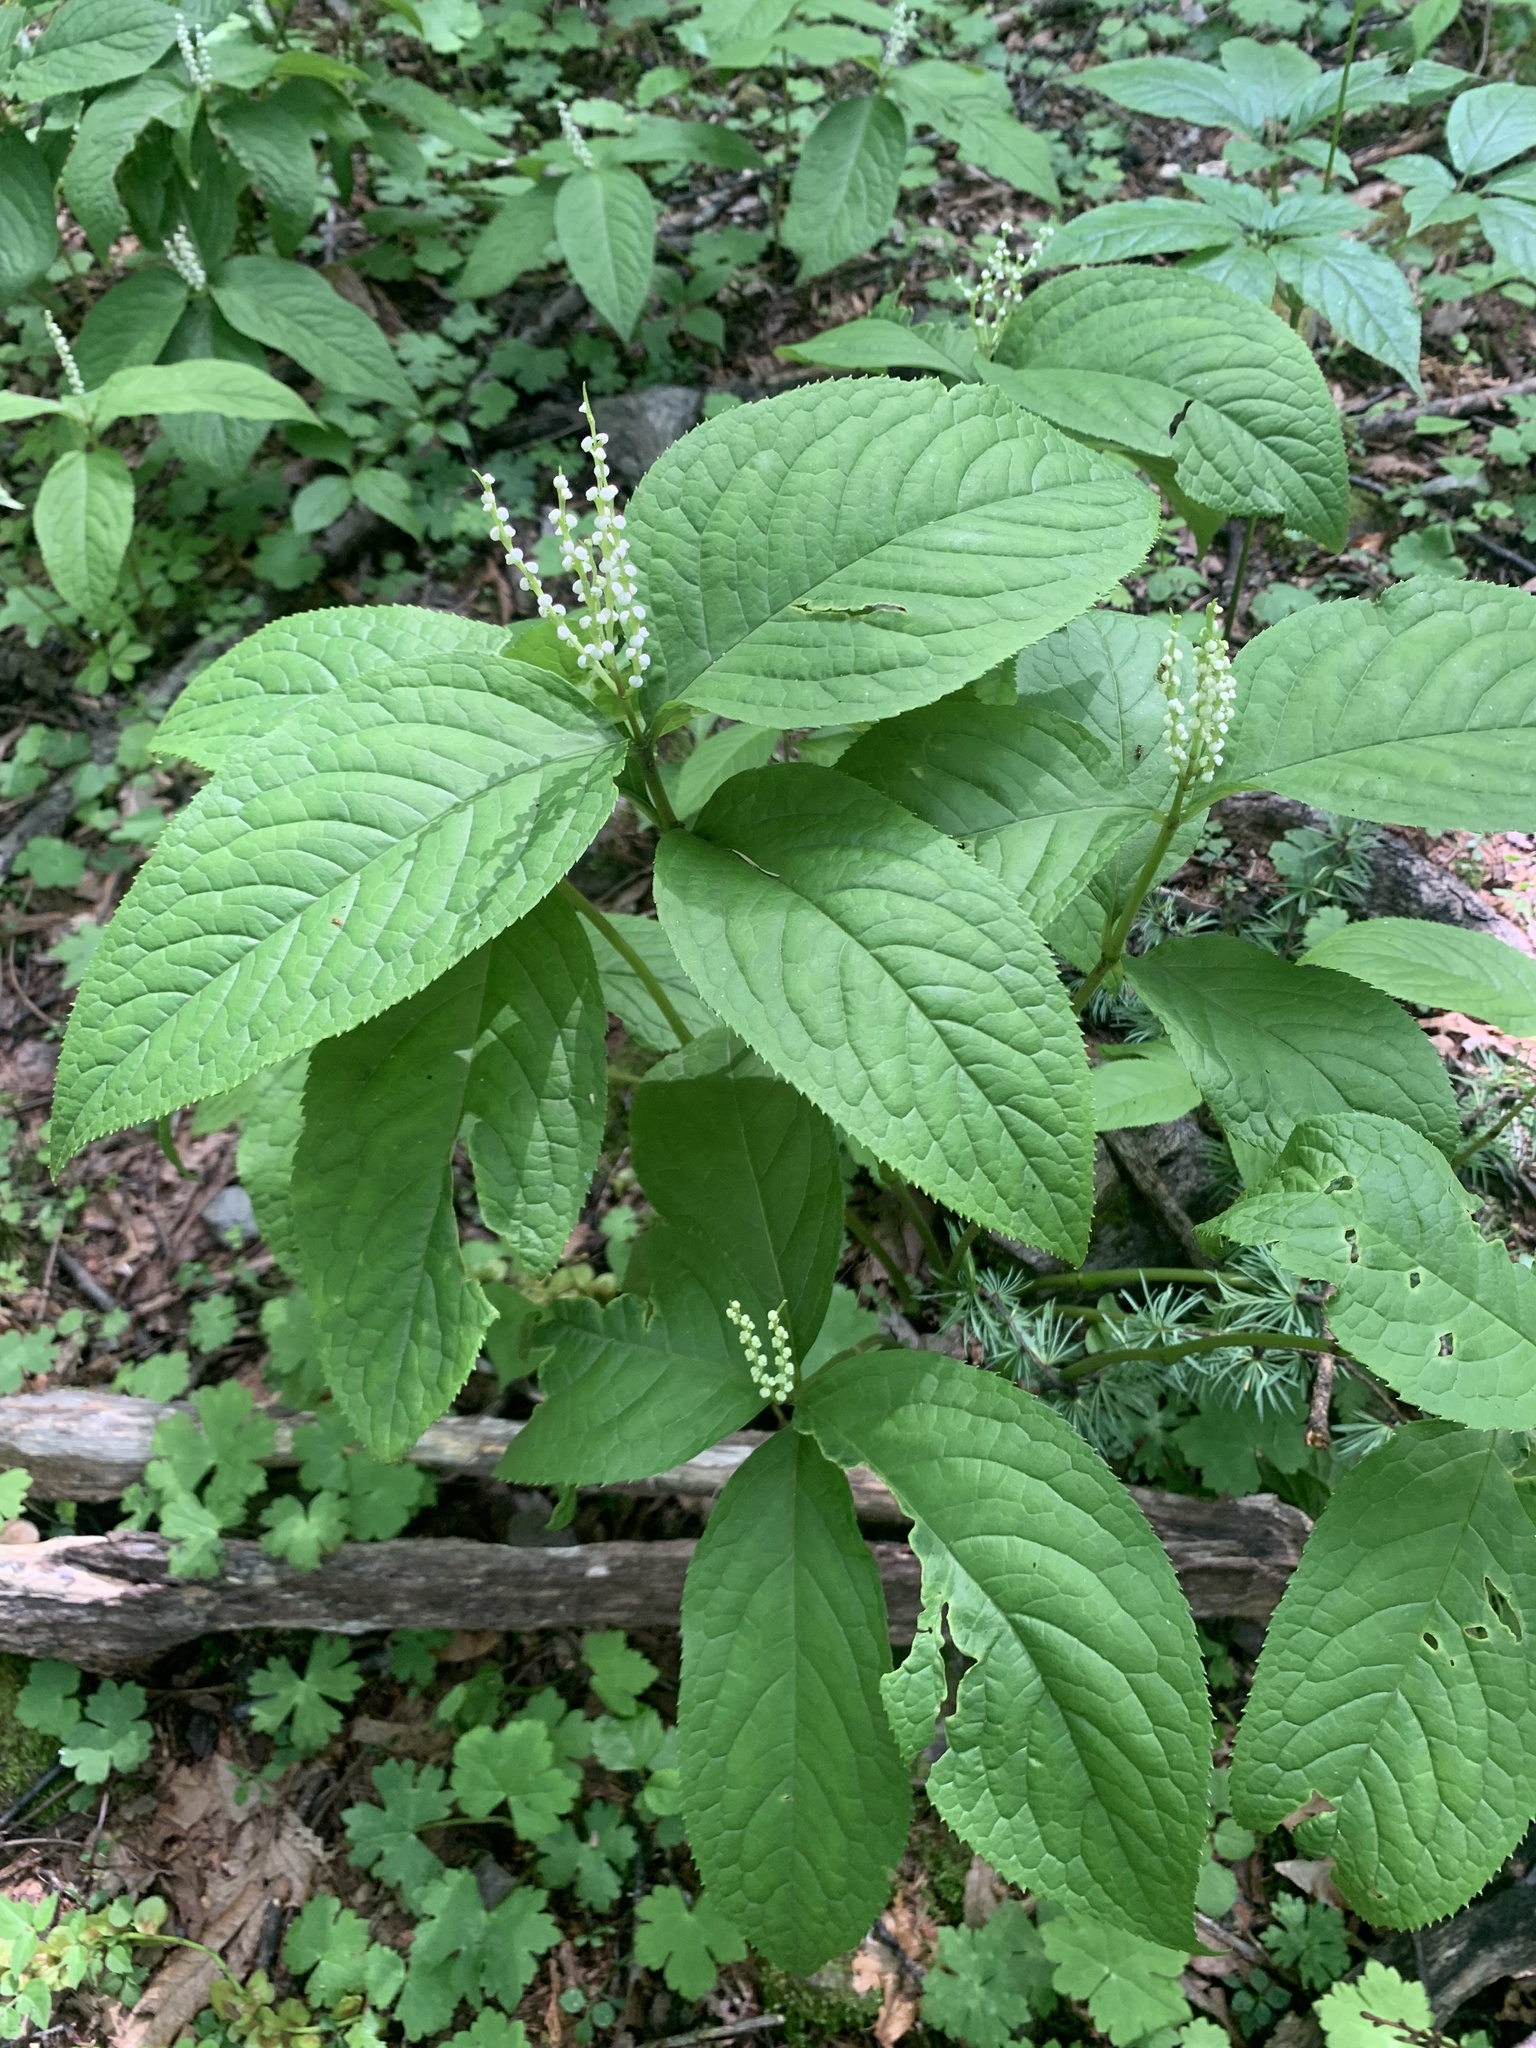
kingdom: Plantae
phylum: Tracheophyta
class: Magnoliopsida
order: Chloranthales
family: Chloranthaceae
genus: Chloranthus
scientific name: Chloranthus serratus
